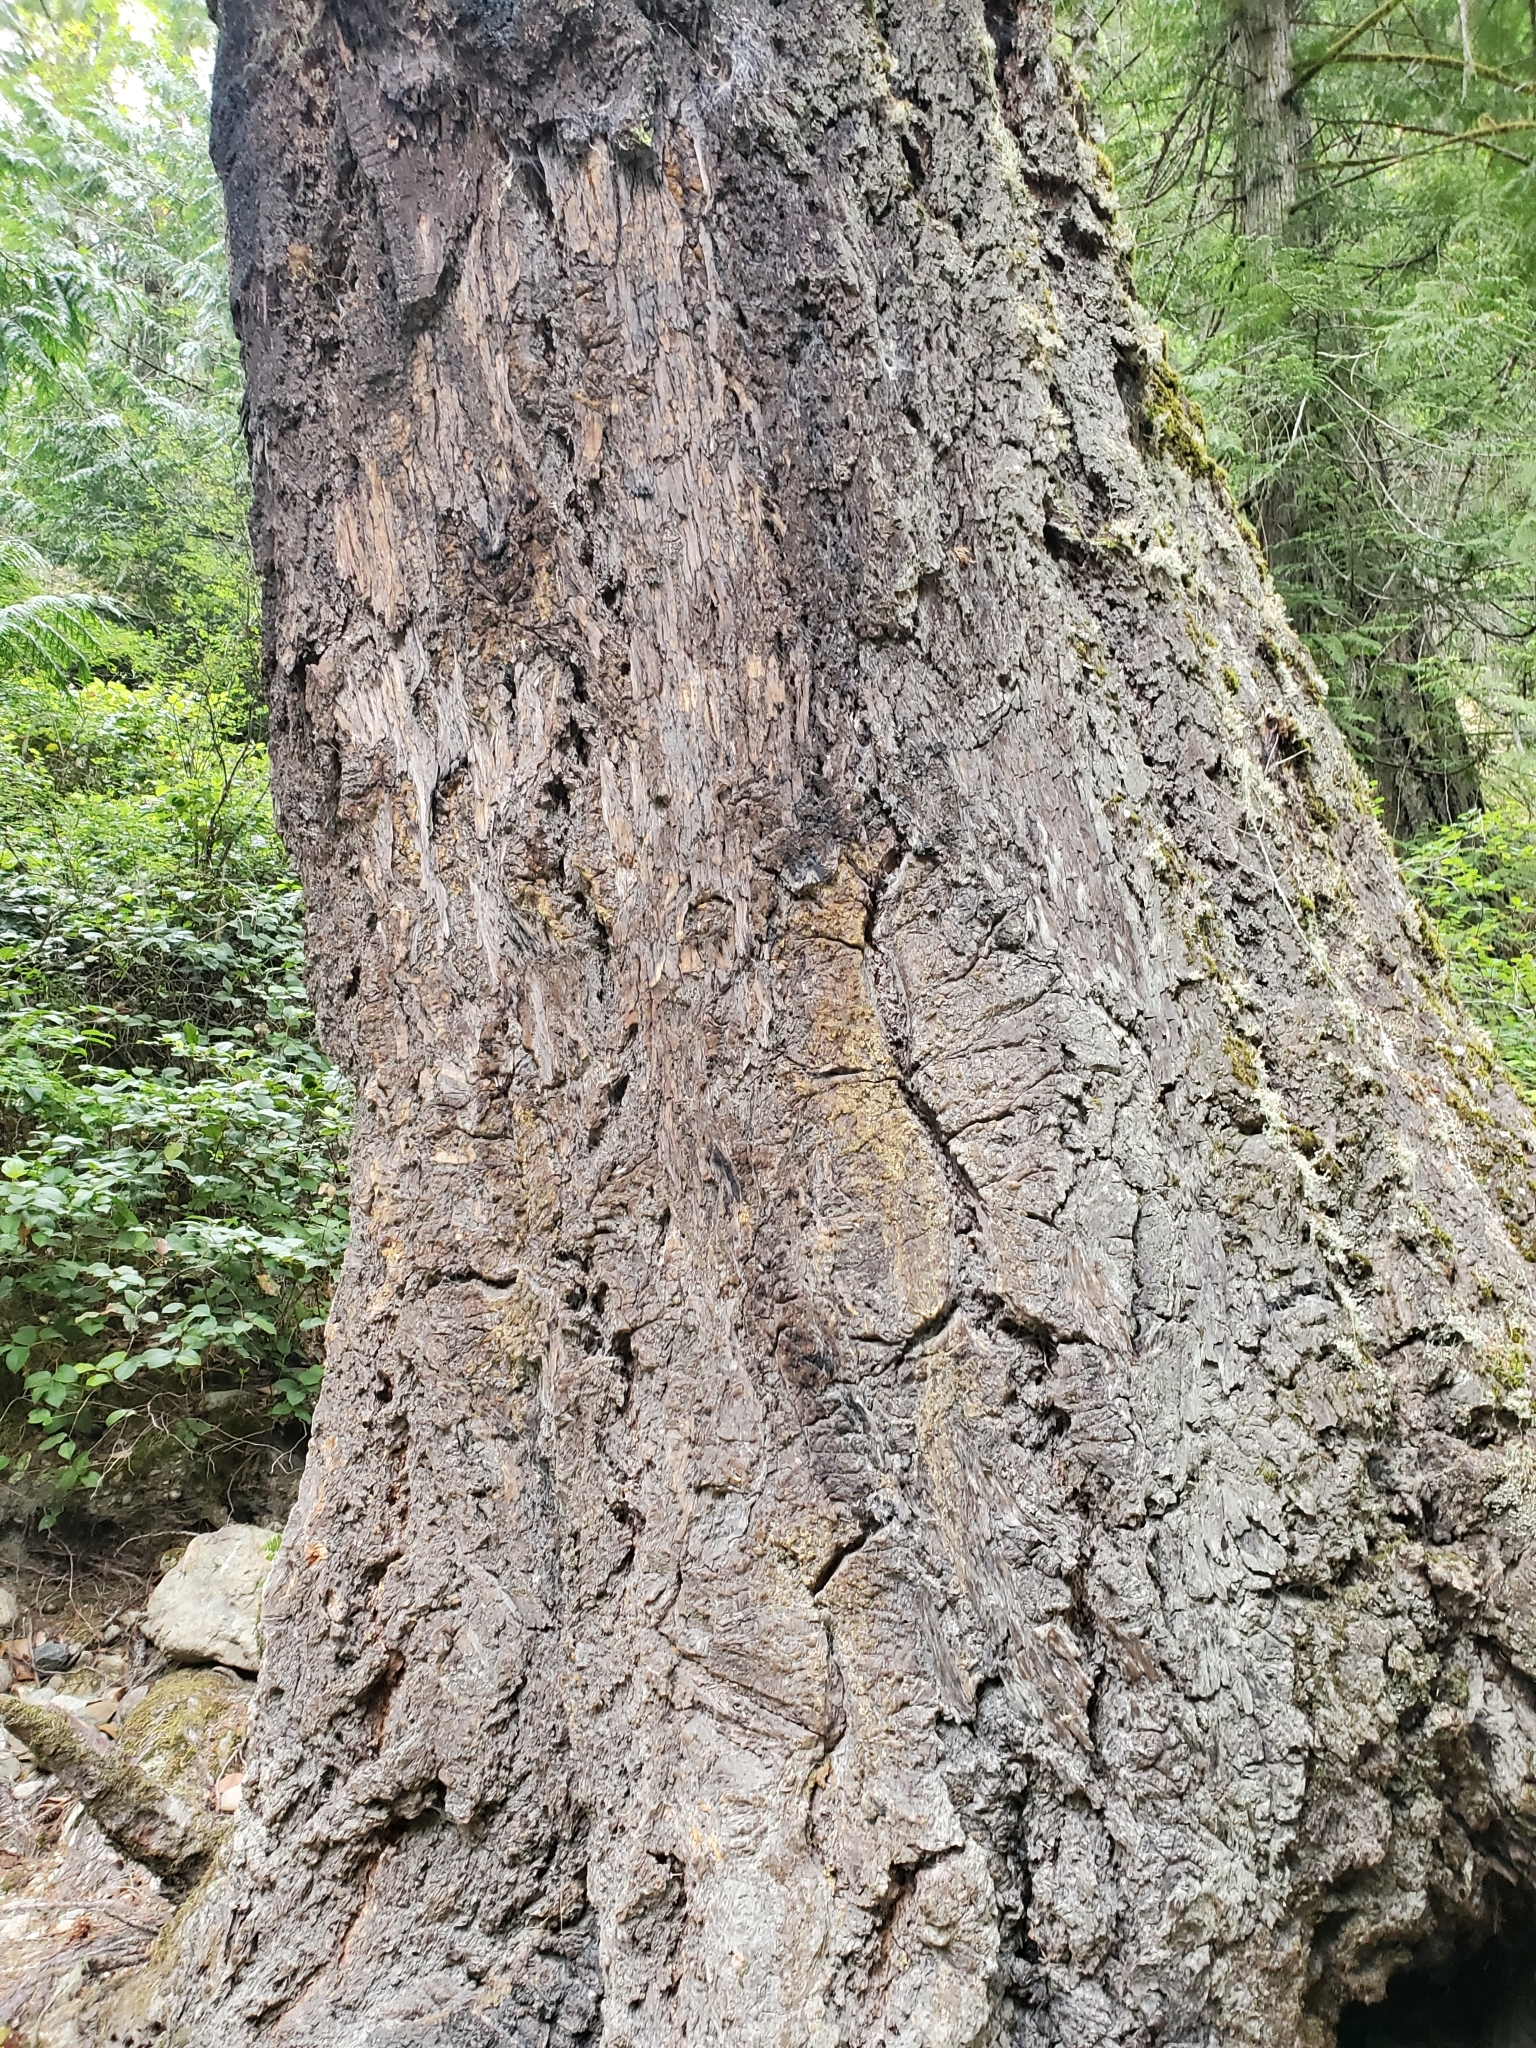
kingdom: Plantae
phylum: Tracheophyta
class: Pinopsida
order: Pinales
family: Pinaceae
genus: Pseudotsuga
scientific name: Pseudotsuga menziesii
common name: Douglas fir
